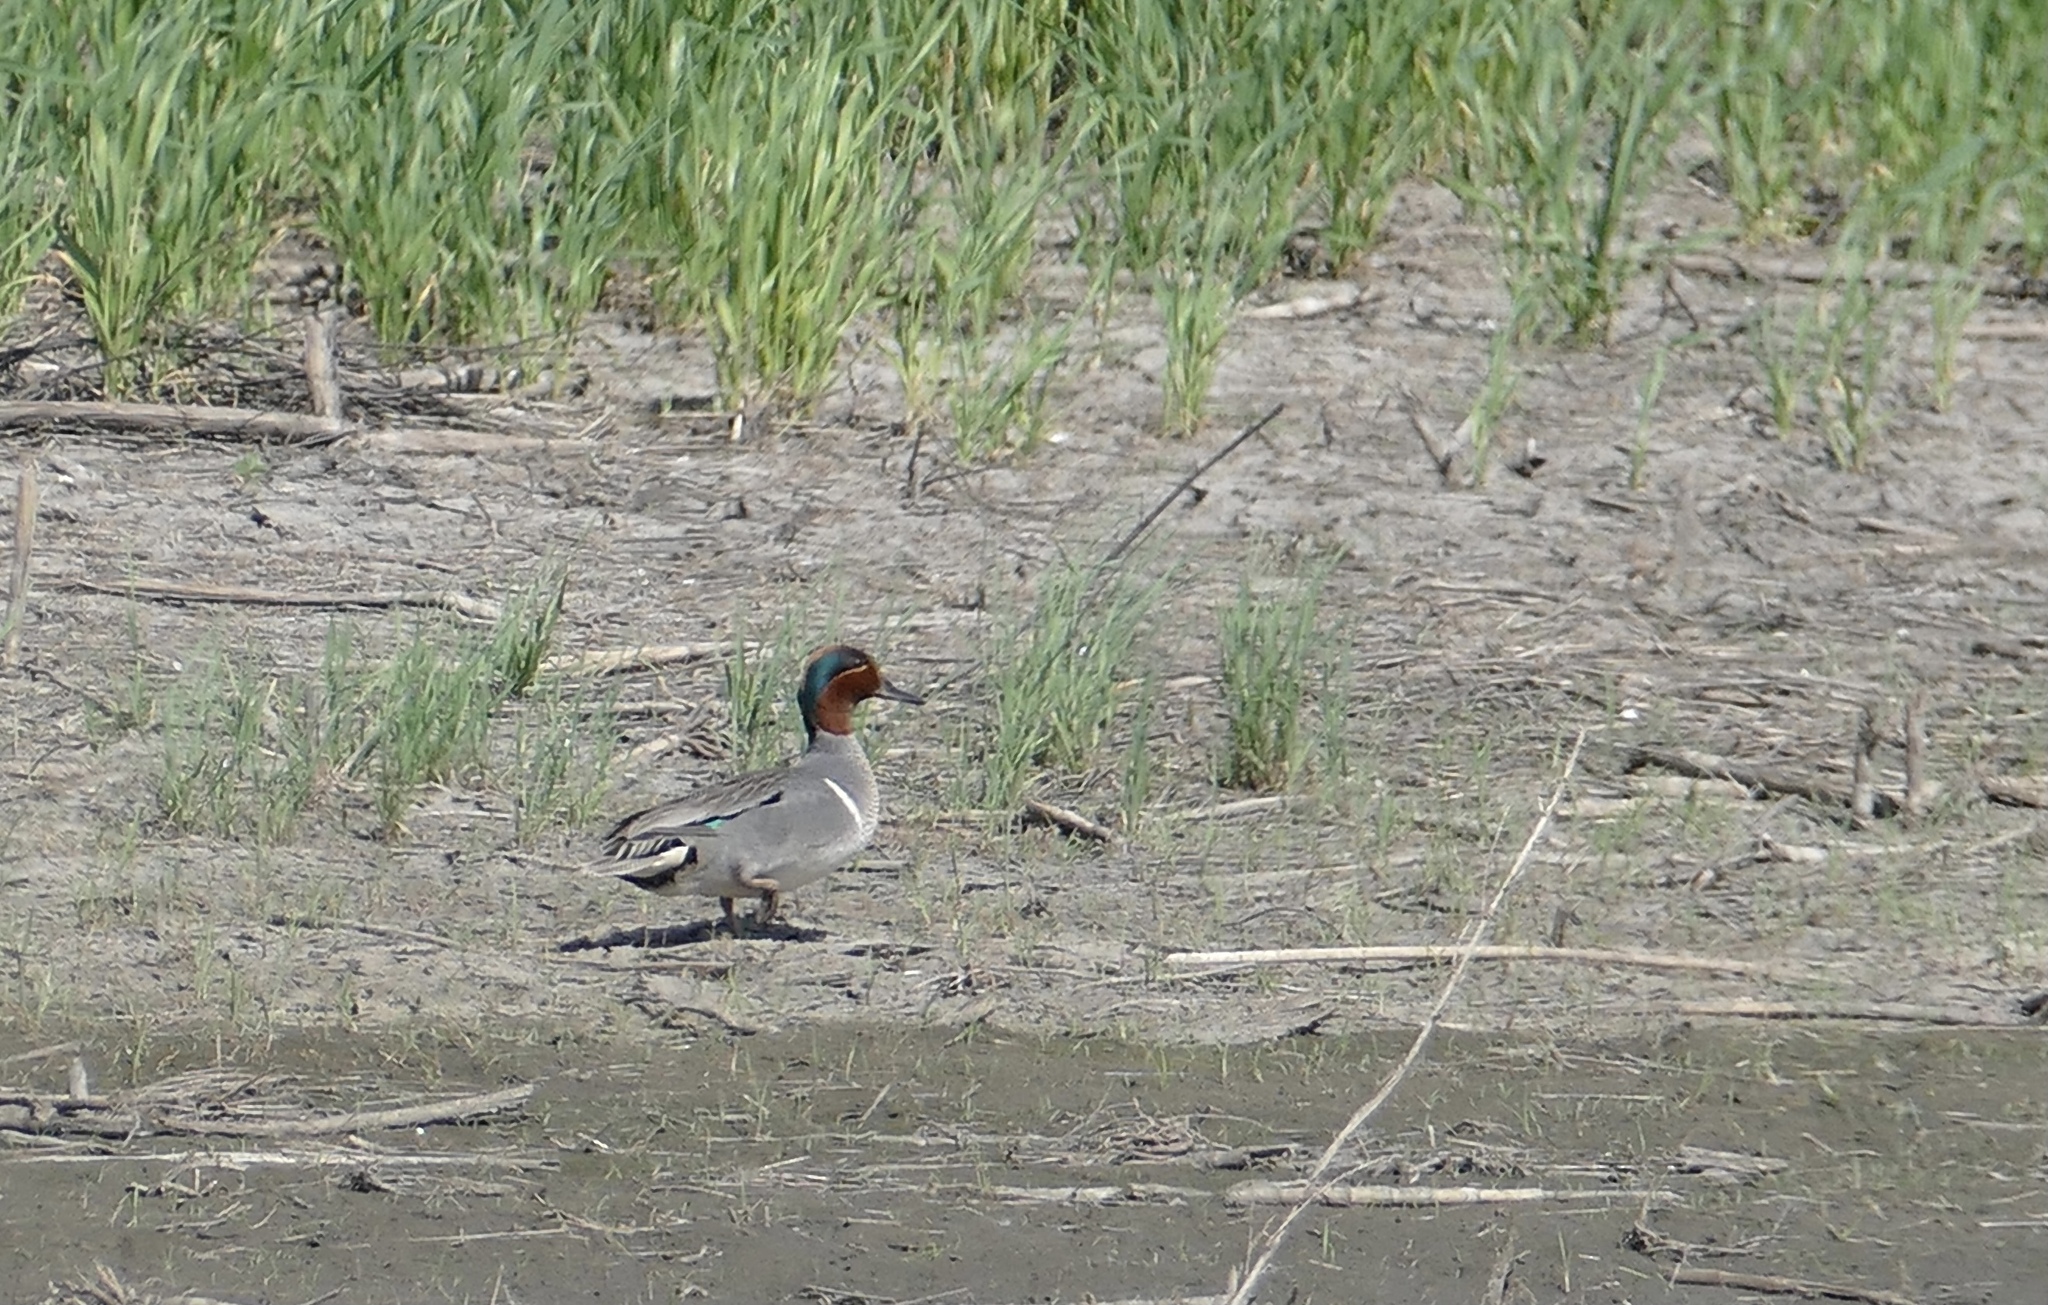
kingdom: Animalia
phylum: Chordata
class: Aves
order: Anseriformes
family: Anatidae
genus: Anas
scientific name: Anas carolinensis
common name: Green-winged teal
